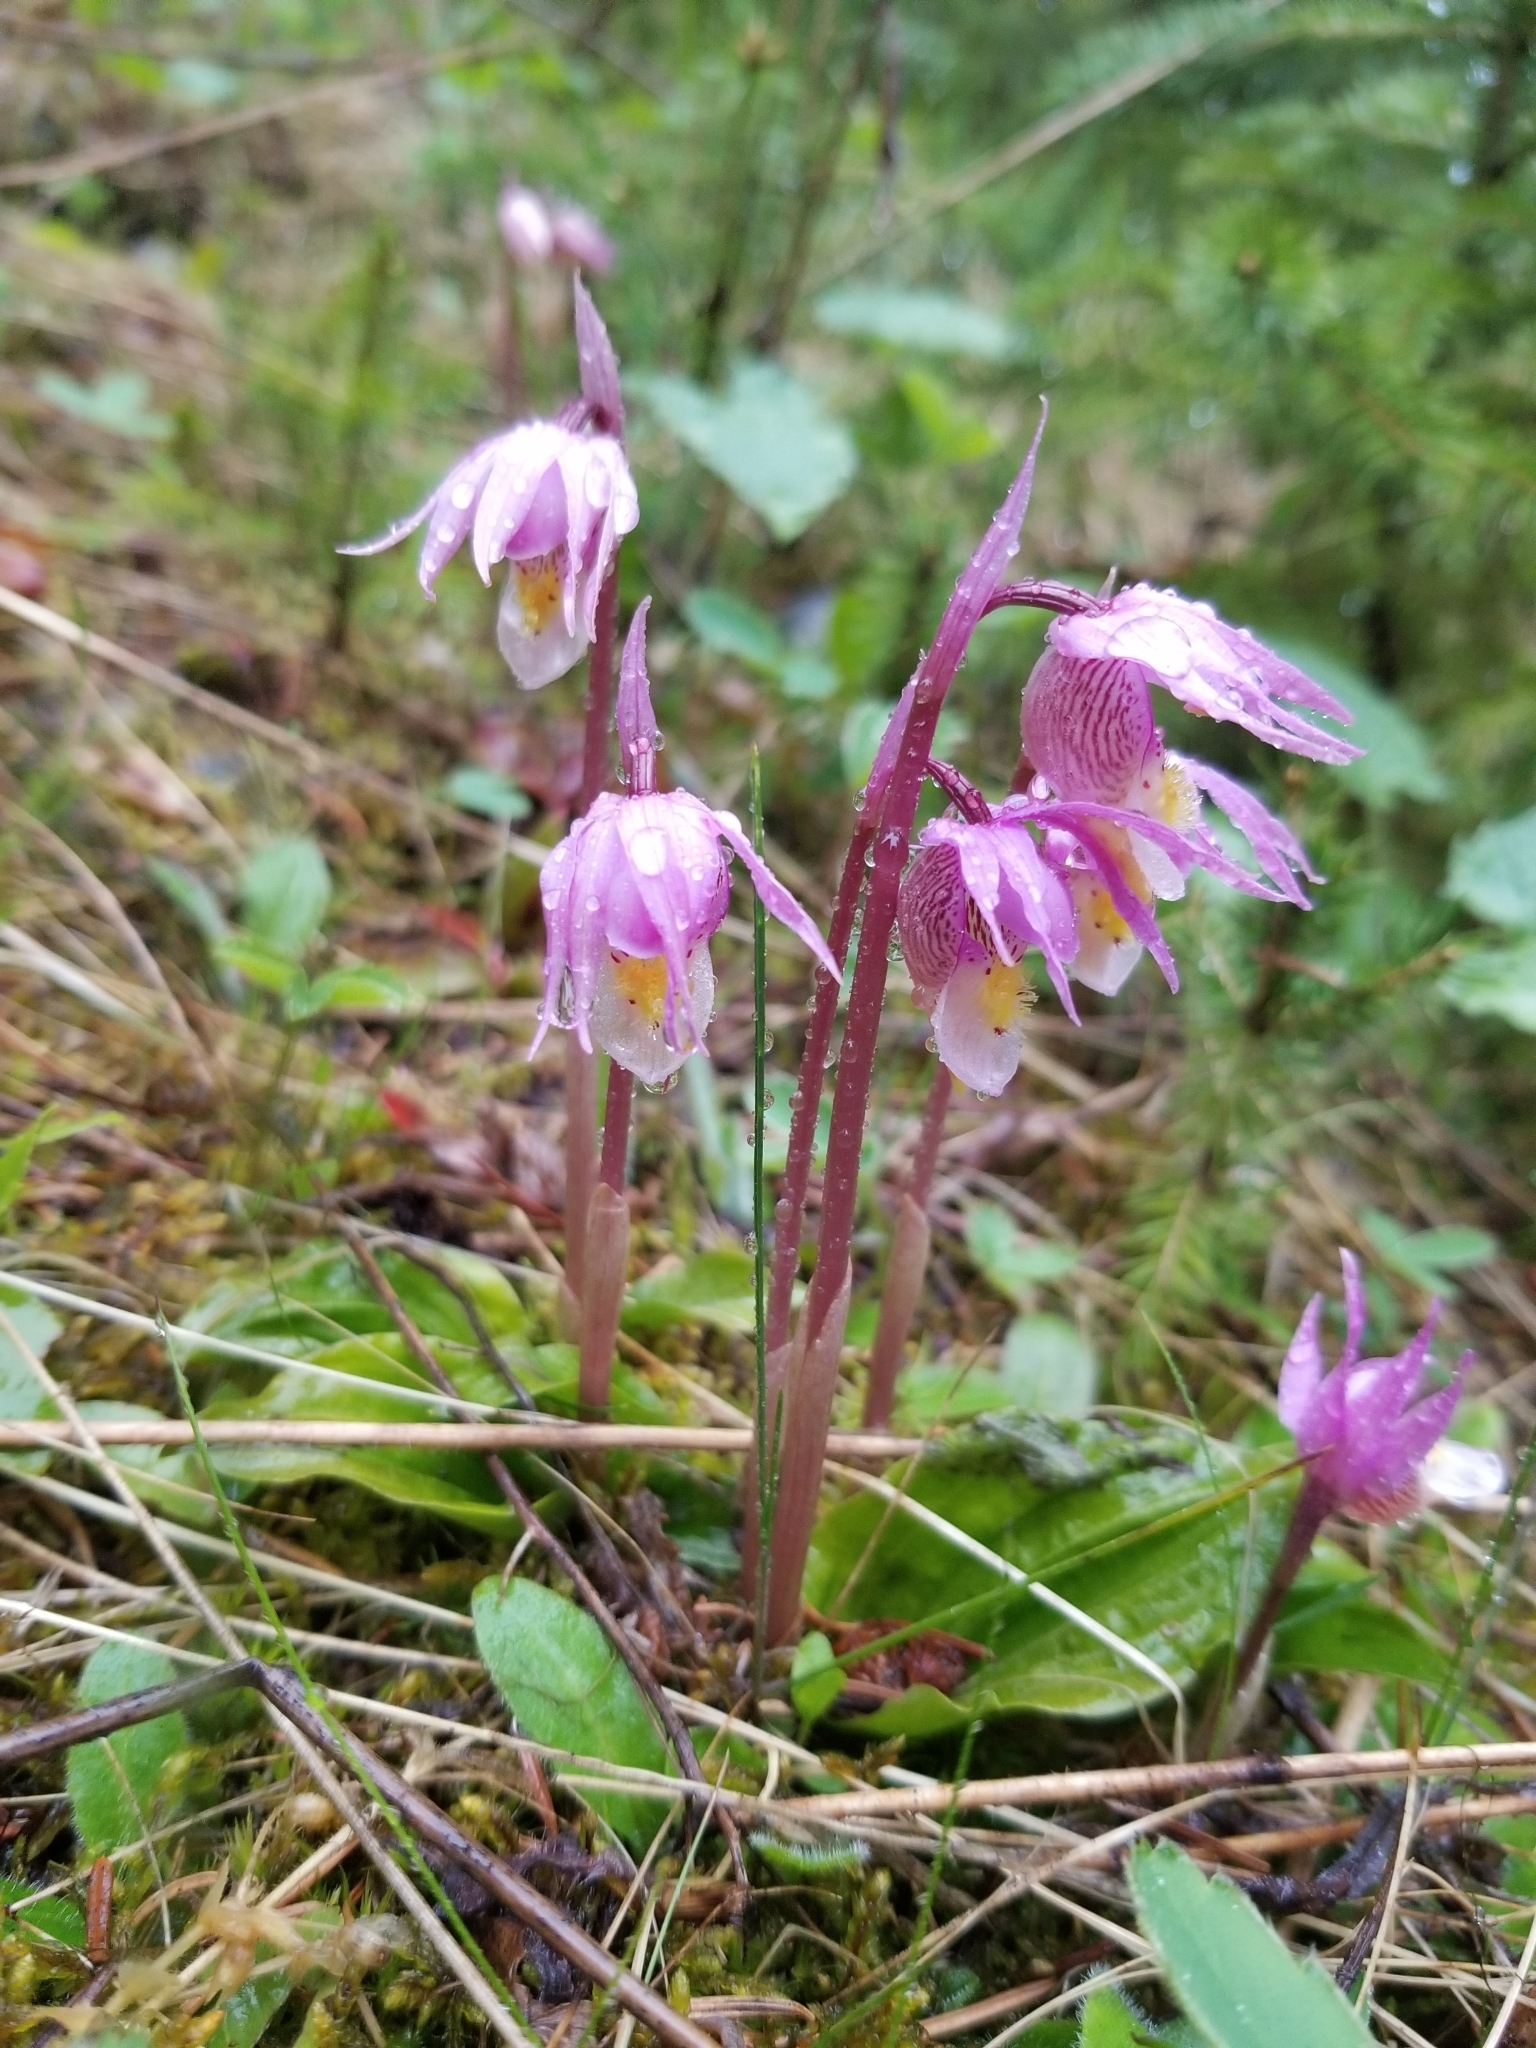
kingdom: Plantae
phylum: Tracheophyta
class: Liliopsida
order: Asparagales
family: Orchidaceae
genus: Calypso
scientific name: Calypso bulbosa
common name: Calypso
